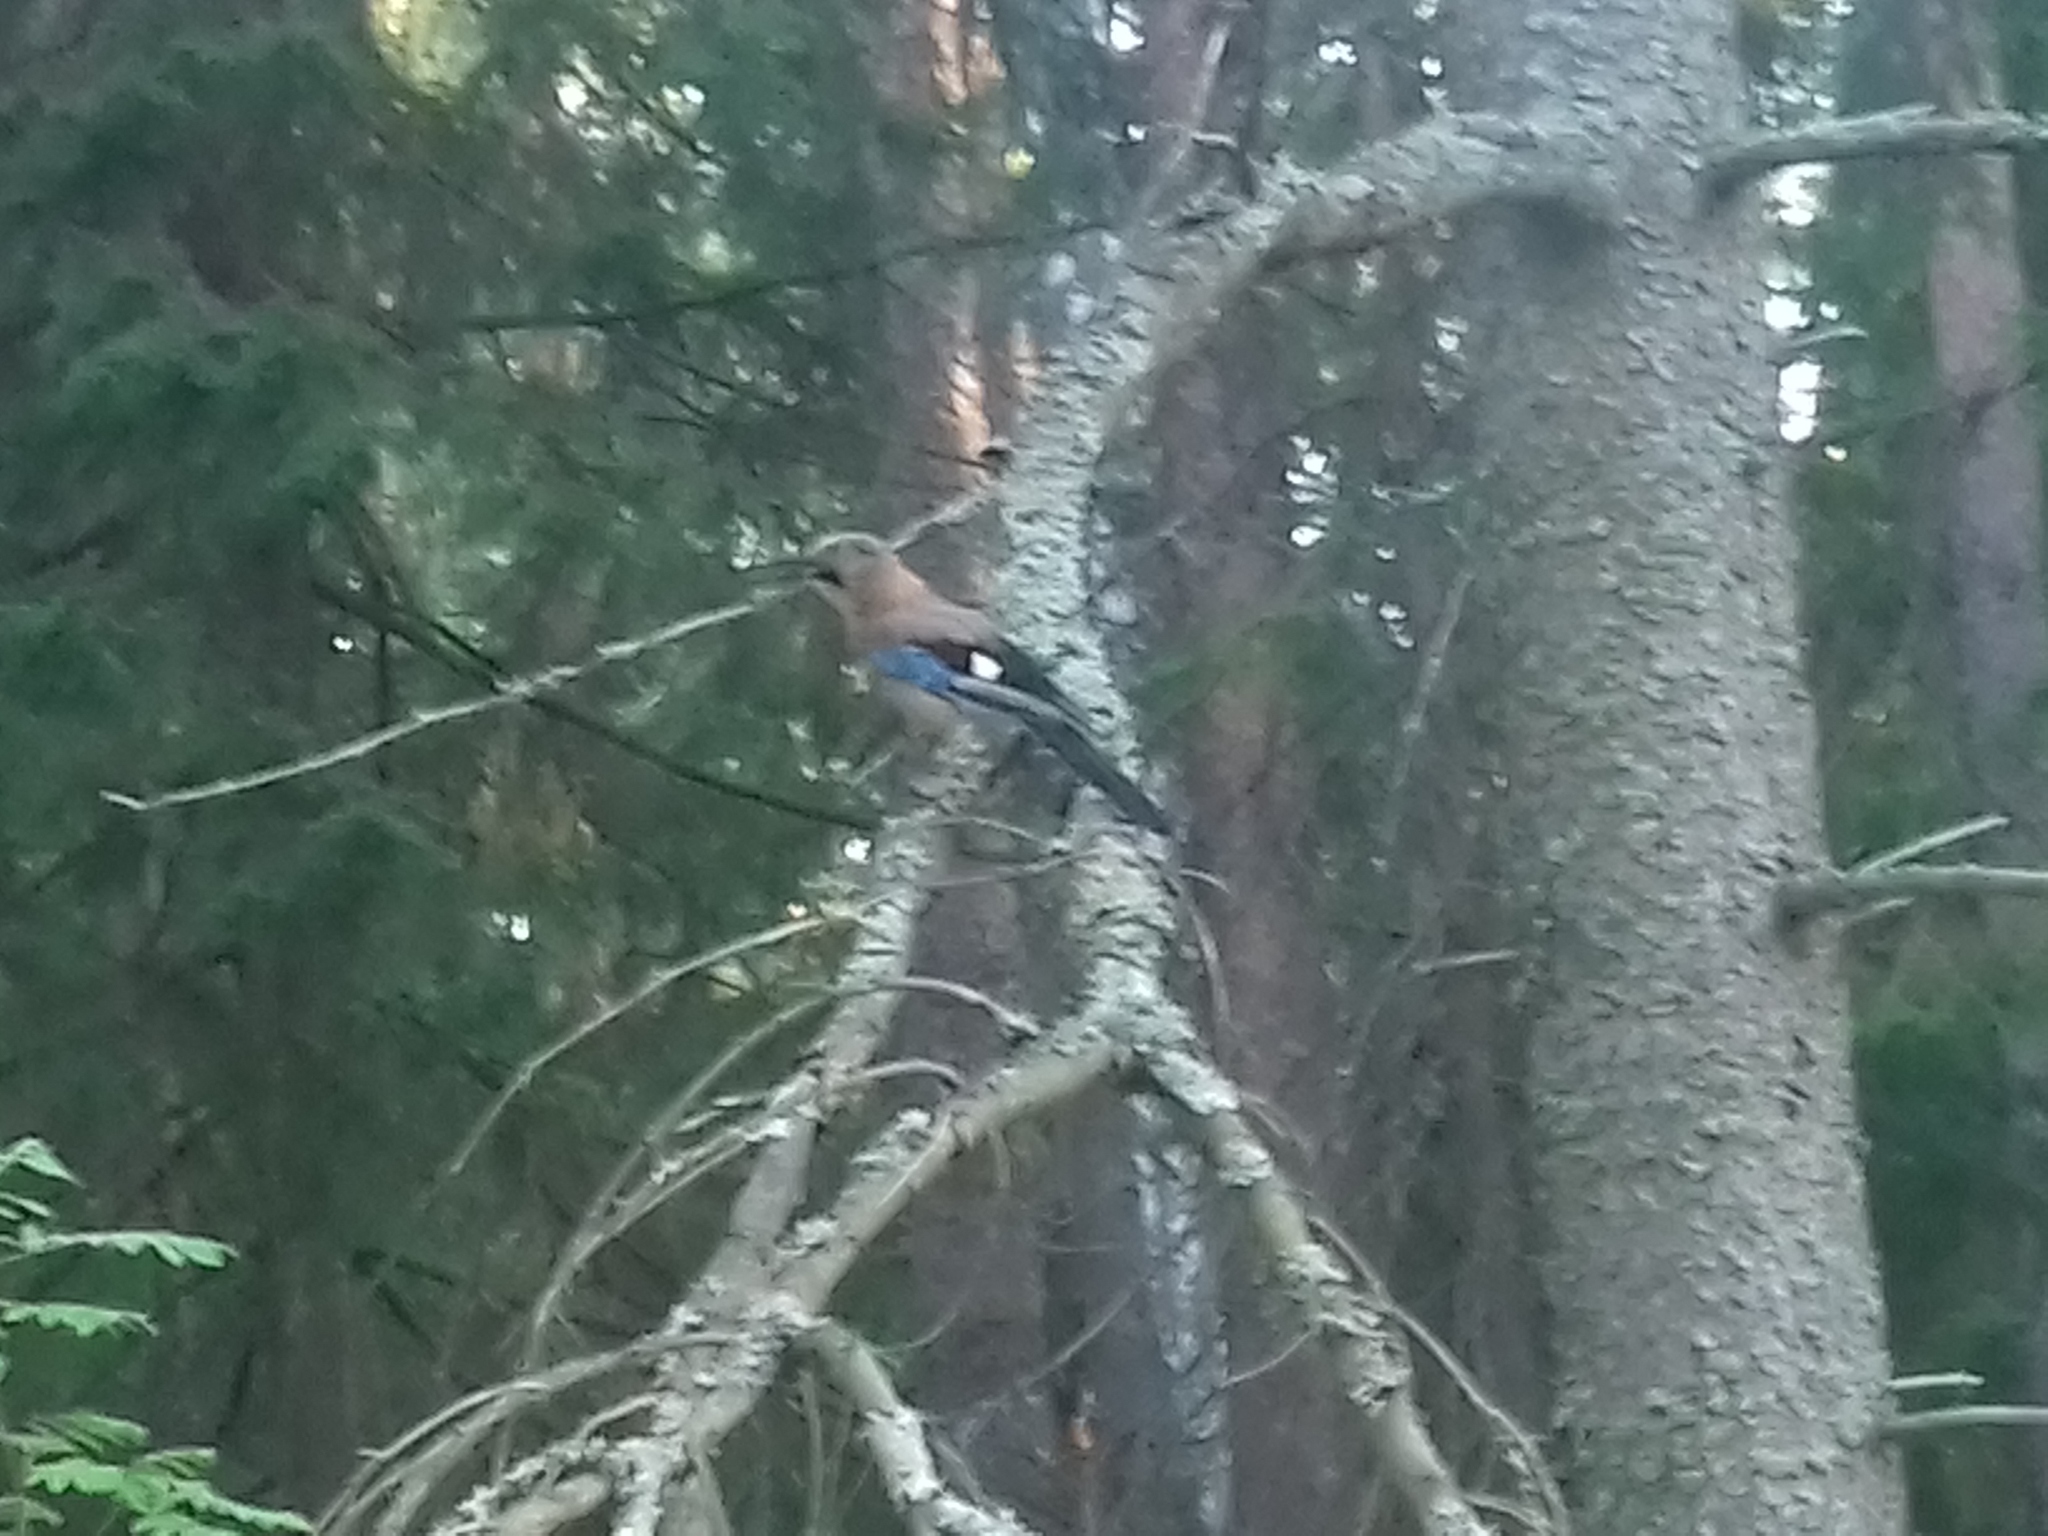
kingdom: Animalia
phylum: Chordata
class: Aves
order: Passeriformes
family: Corvidae
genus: Garrulus
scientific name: Garrulus glandarius
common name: Eurasian jay
